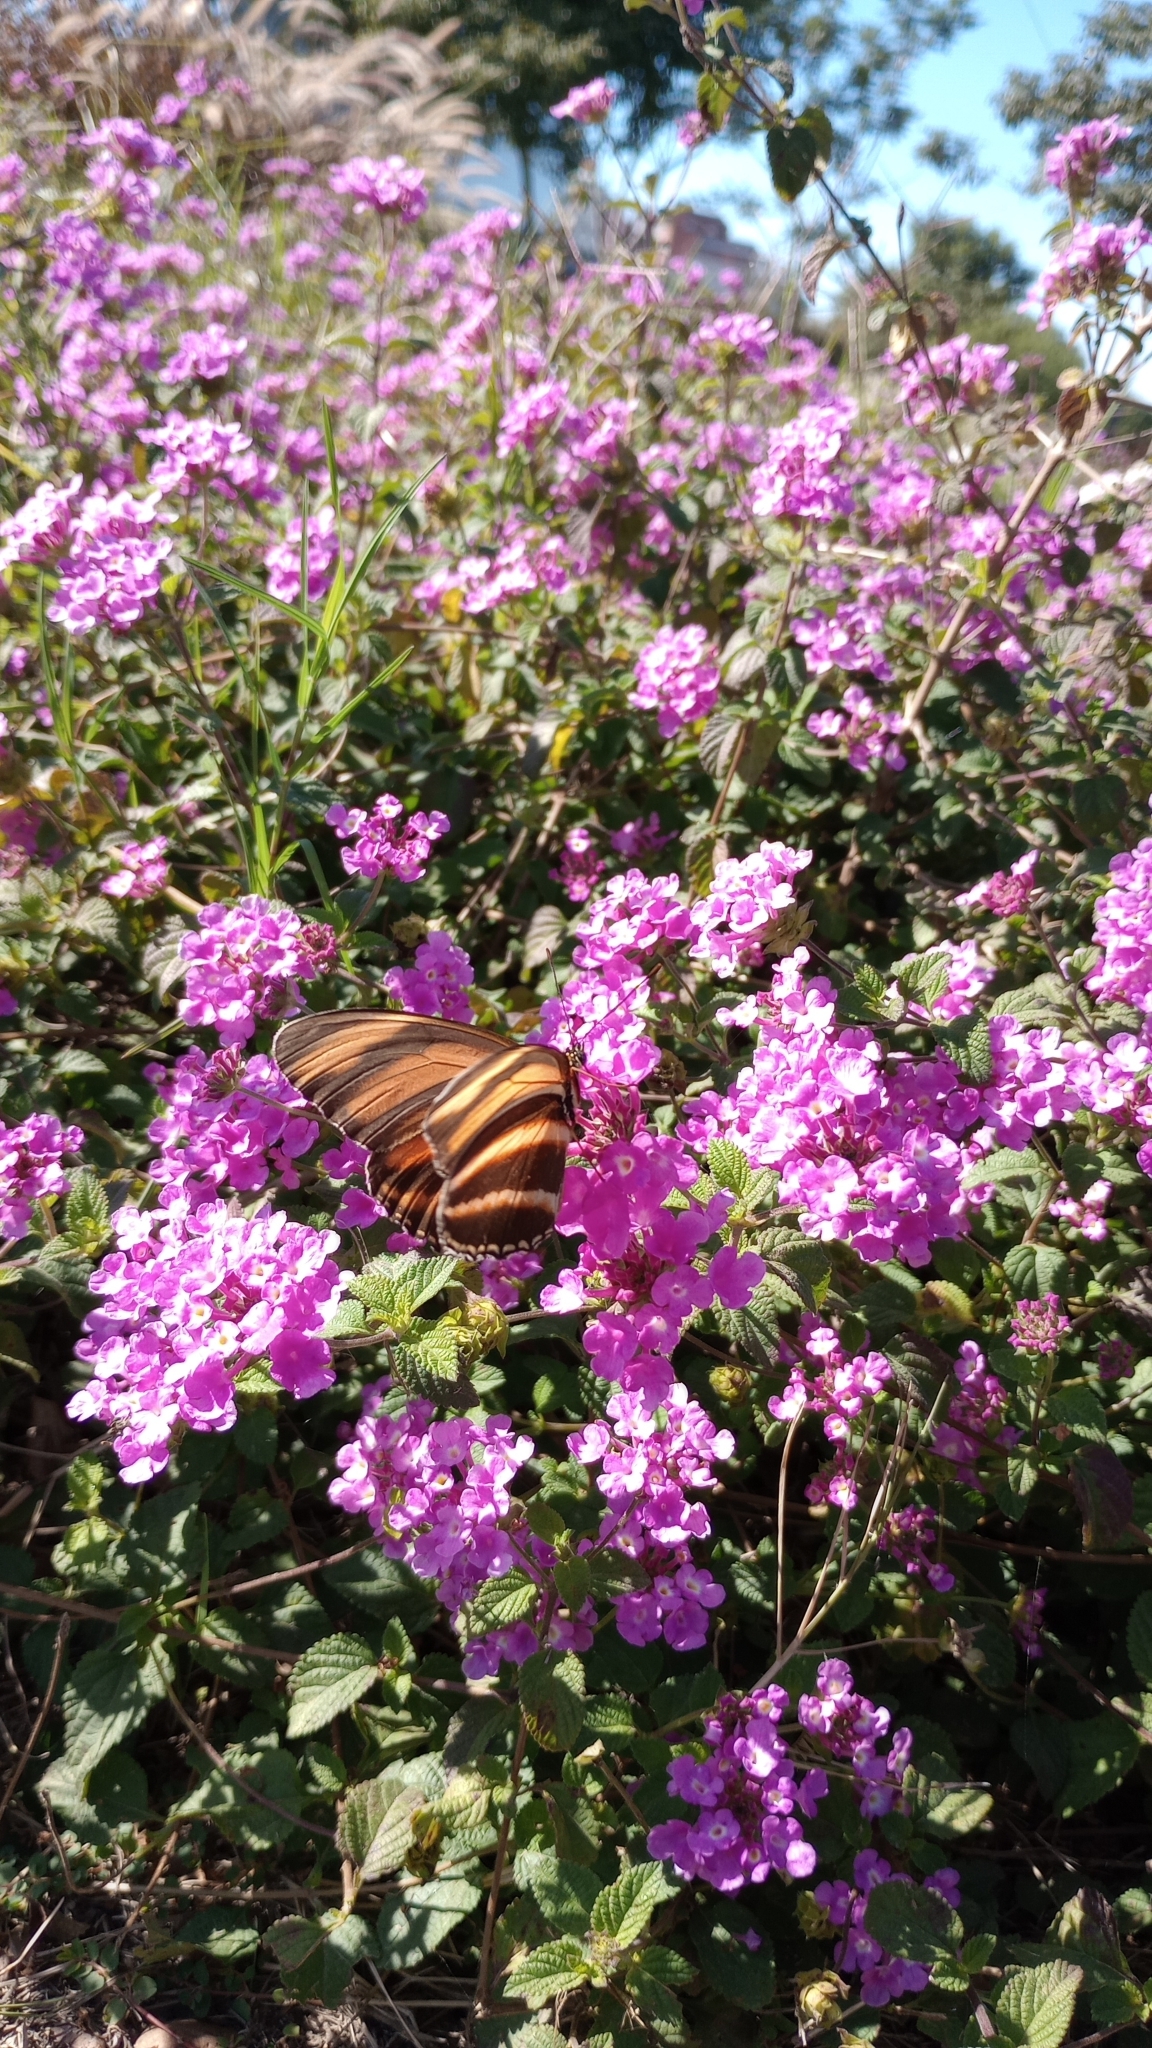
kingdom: Animalia
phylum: Arthropoda
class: Insecta
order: Lepidoptera
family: Nymphalidae
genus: Dryadula
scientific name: Dryadula phaetusa
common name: Banded orange heliconian
